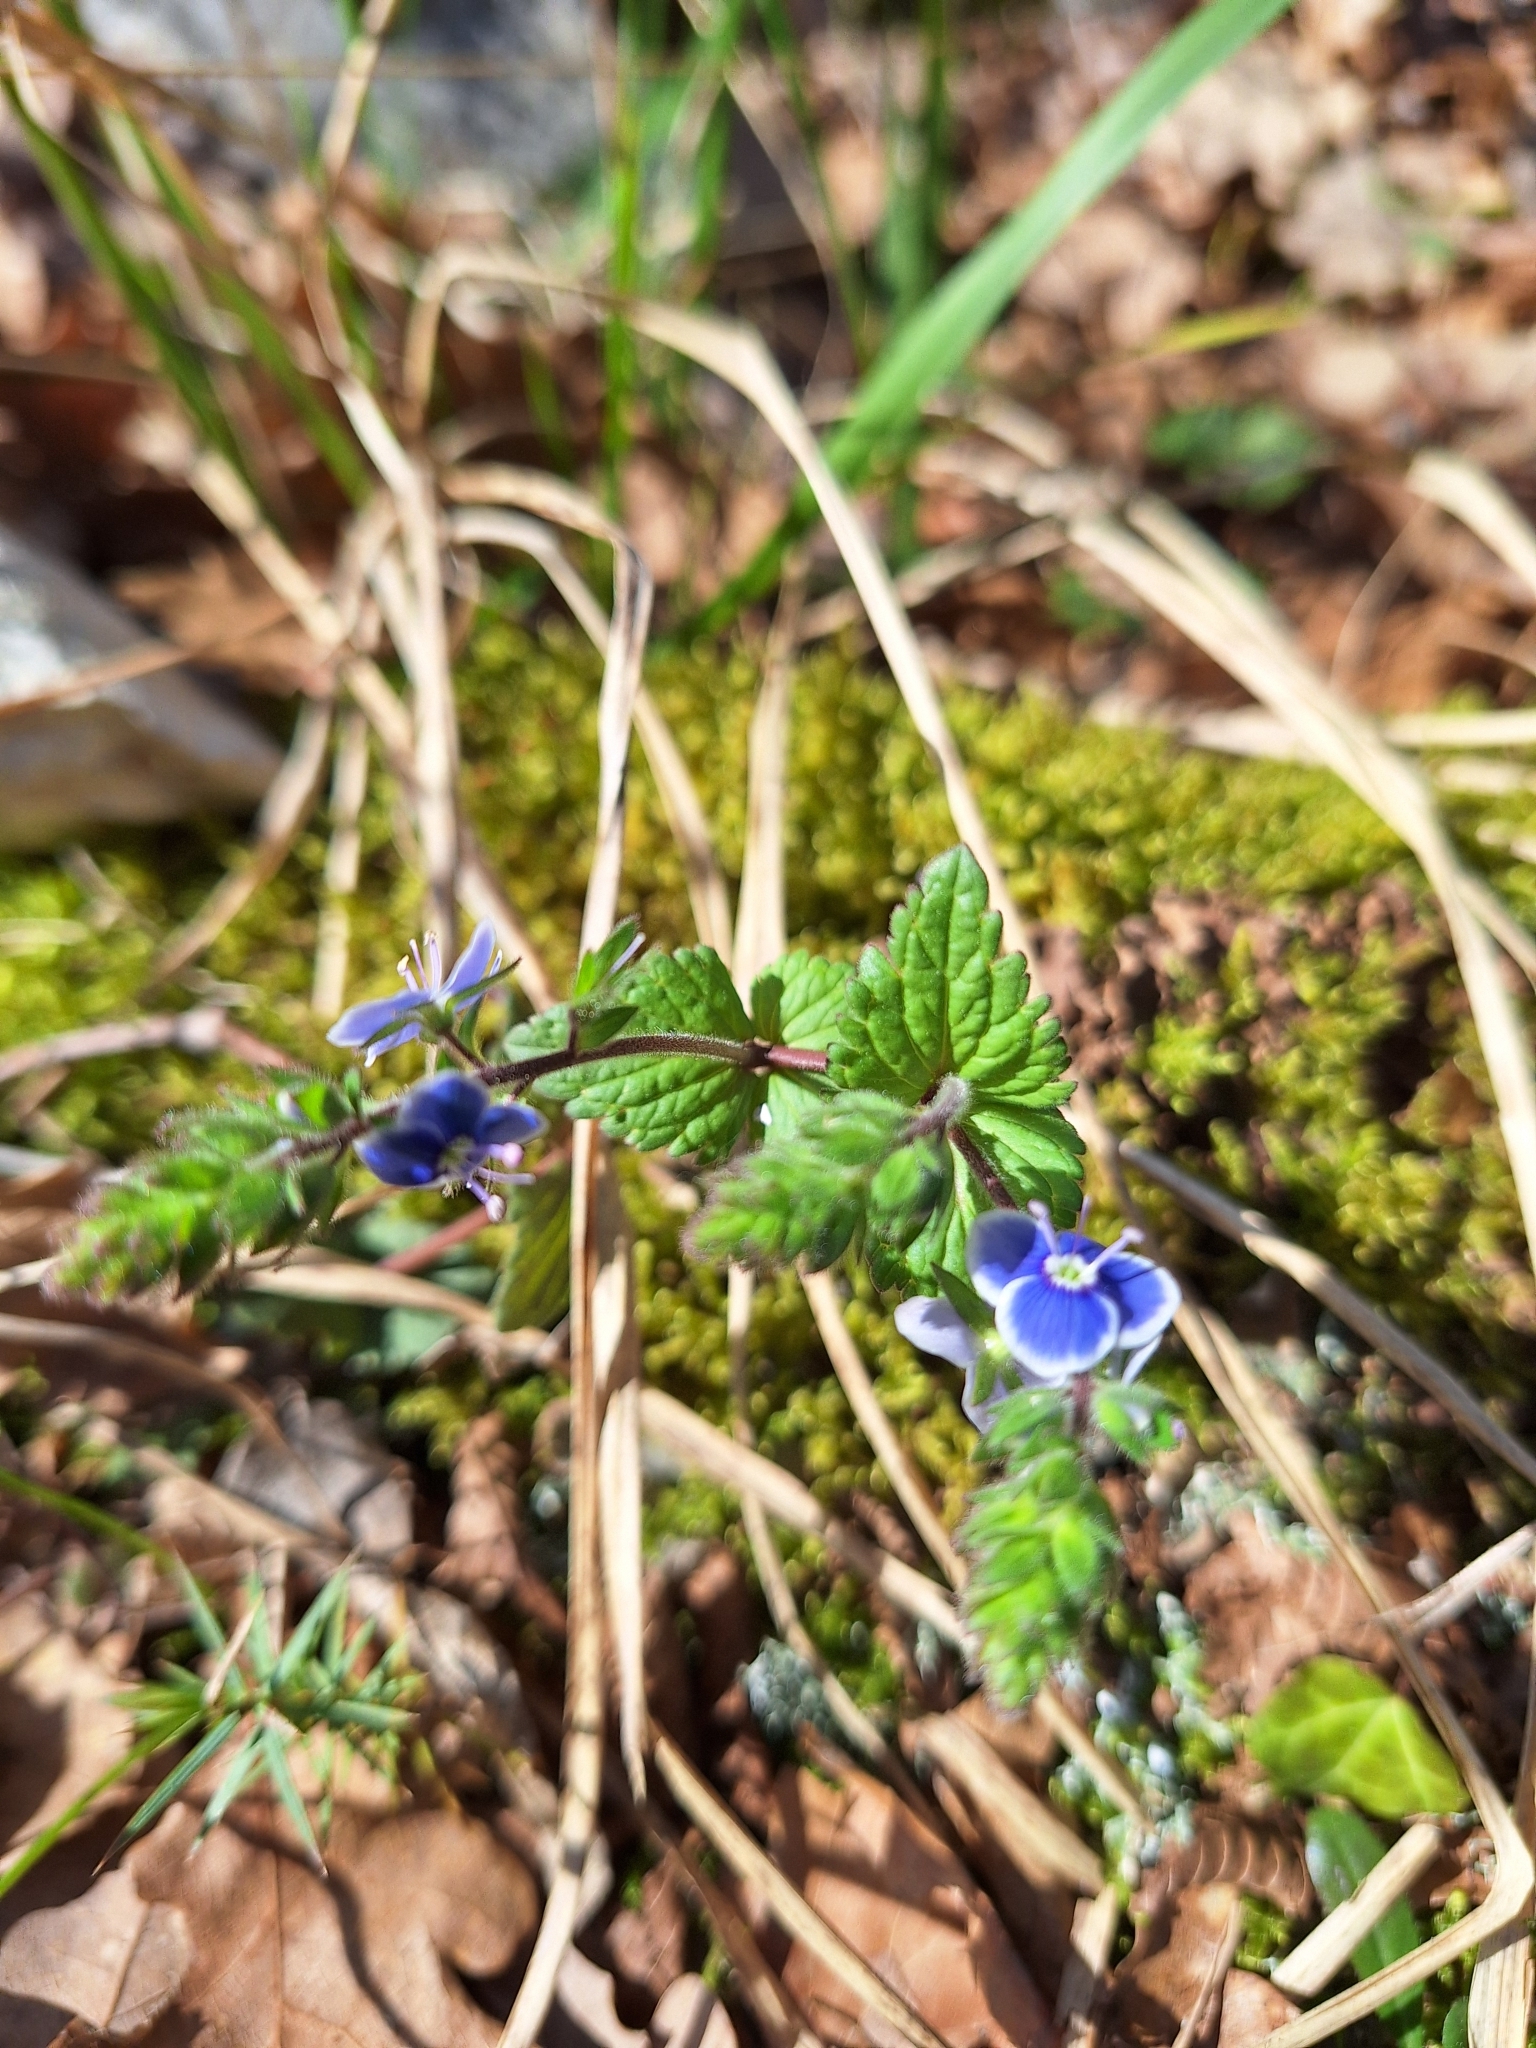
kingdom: Plantae
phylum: Tracheophyta
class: Magnoliopsida
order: Lamiales
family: Plantaginaceae
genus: Veronica
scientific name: Veronica chamaedrys
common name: Germander speedwell
